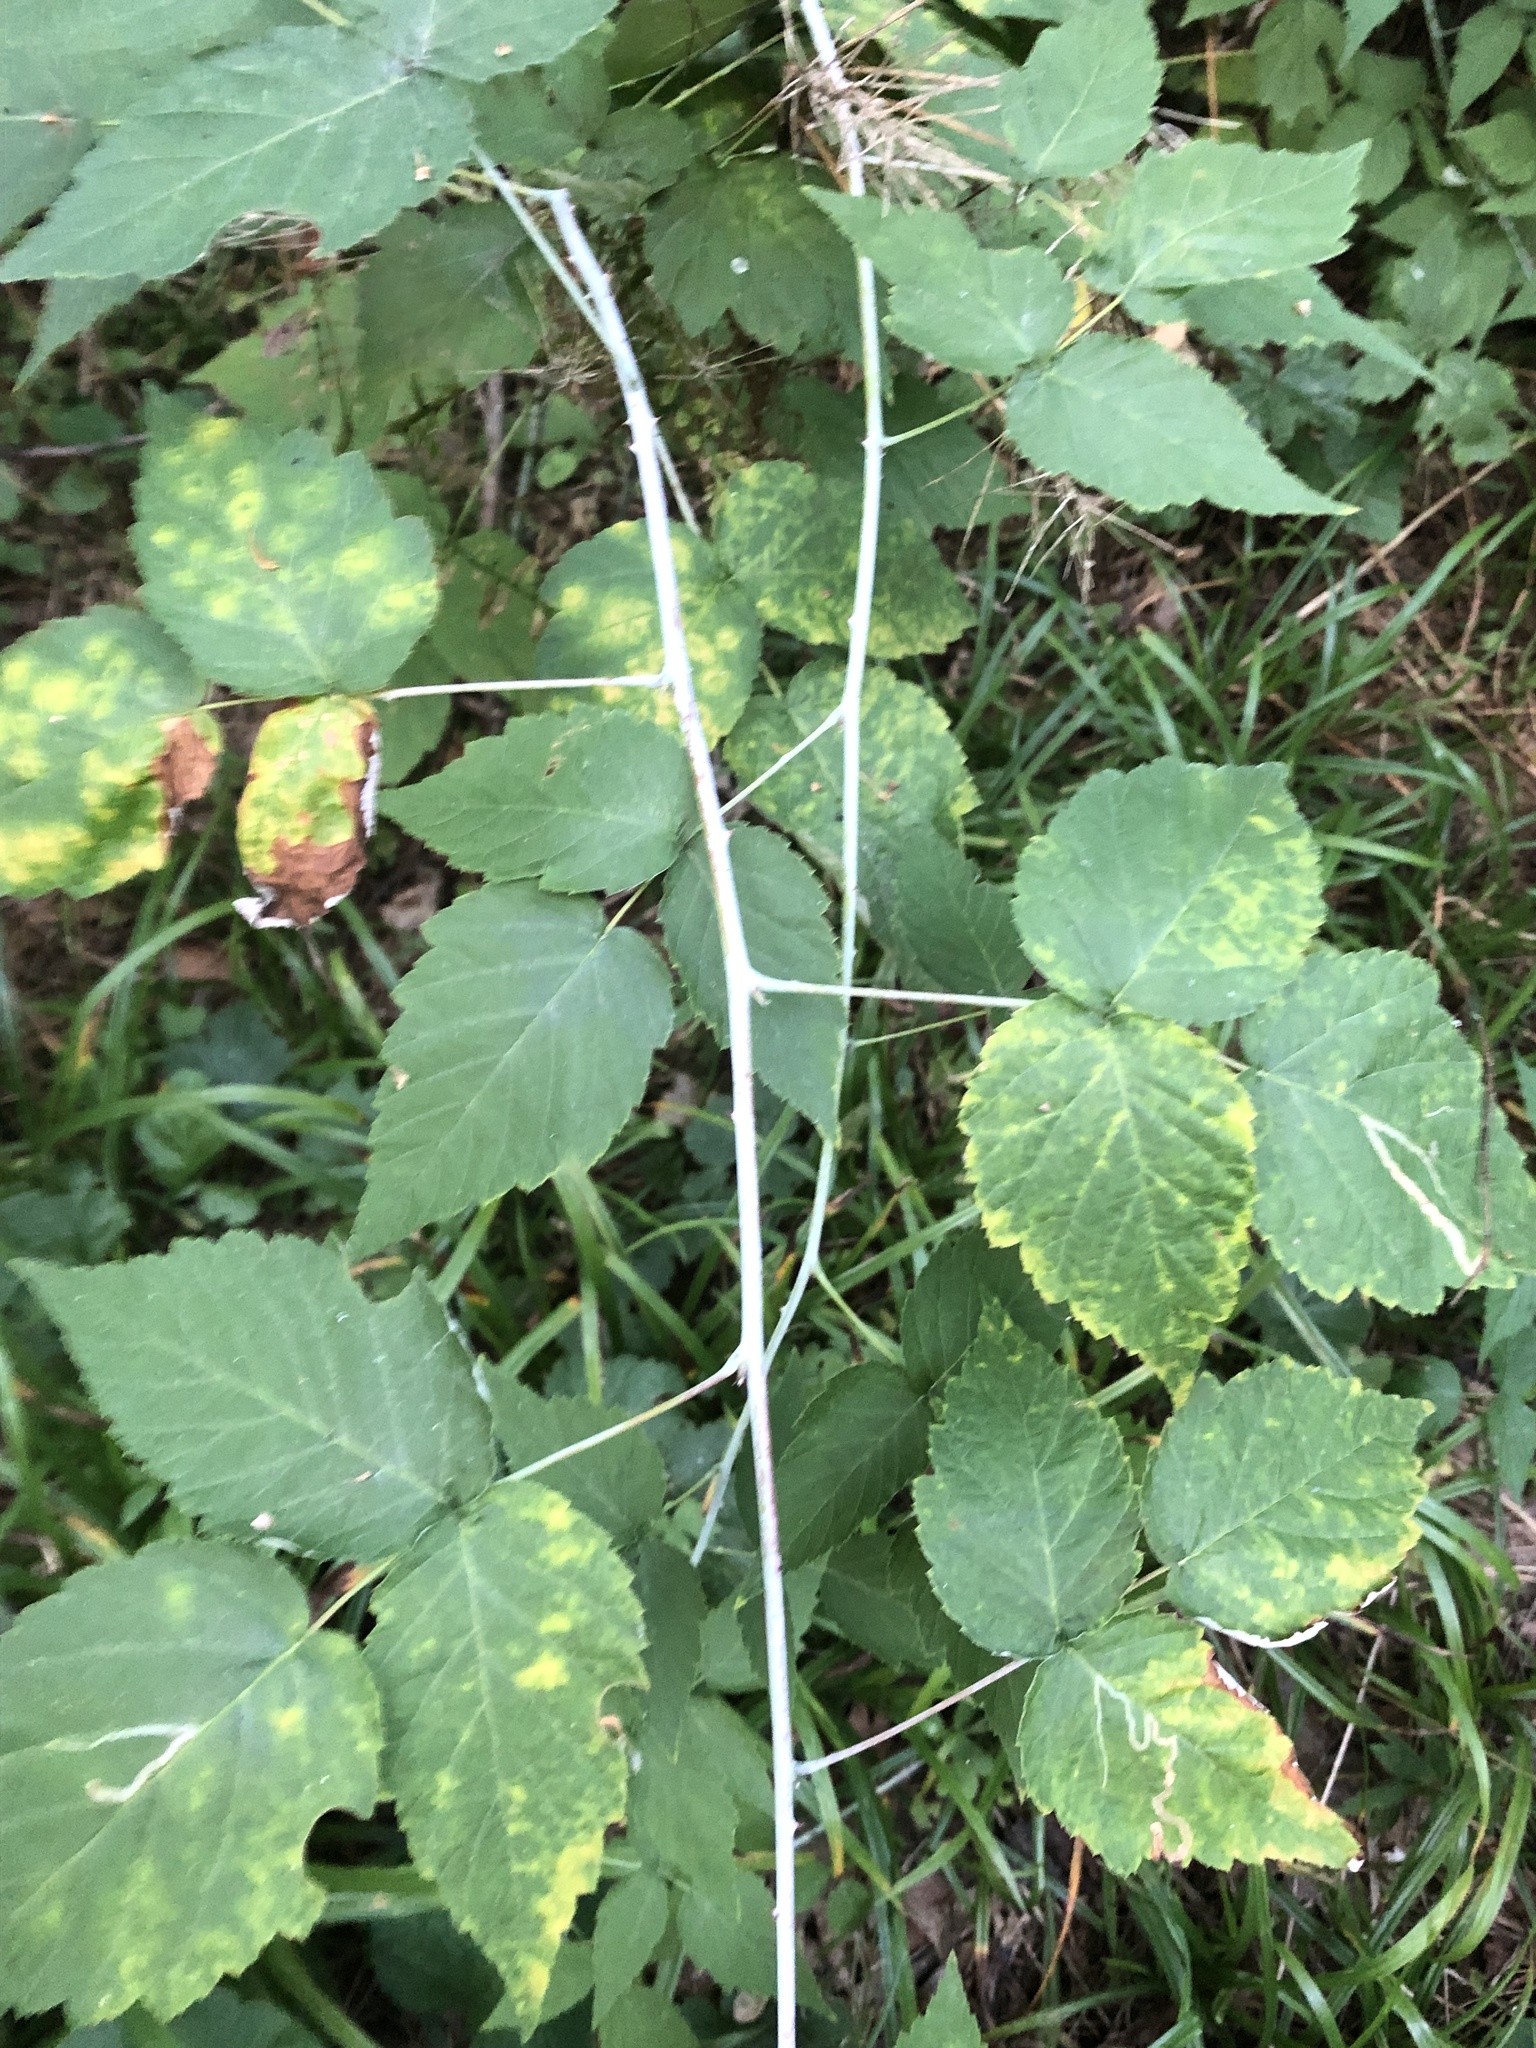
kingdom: Plantae
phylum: Tracheophyta
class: Magnoliopsida
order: Rosales
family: Rosaceae
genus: Rubus
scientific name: Rubus occidentalis
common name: Black raspberry
